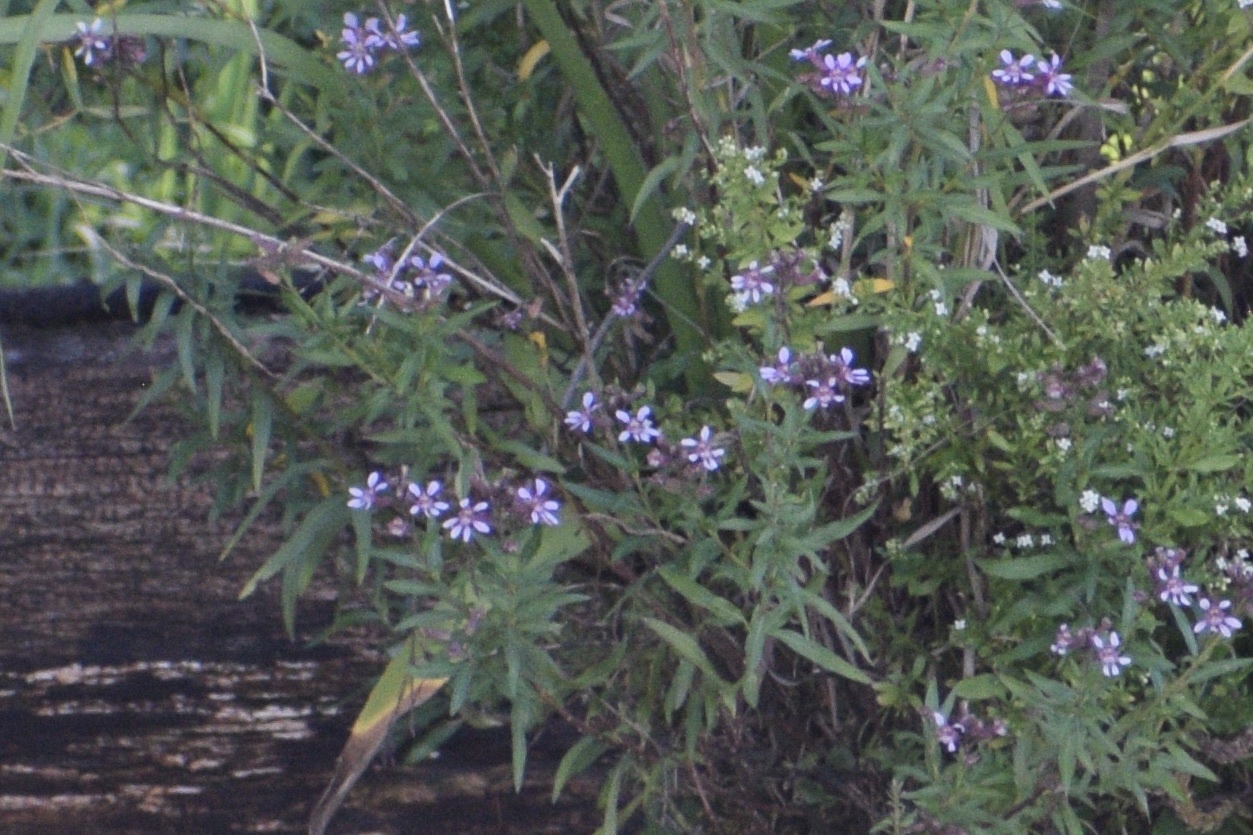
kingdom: Plantae
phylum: Tracheophyta
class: Magnoliopsida
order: Myrtales
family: Lythraceae
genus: Cuphea
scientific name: Cuphea fruticosa
